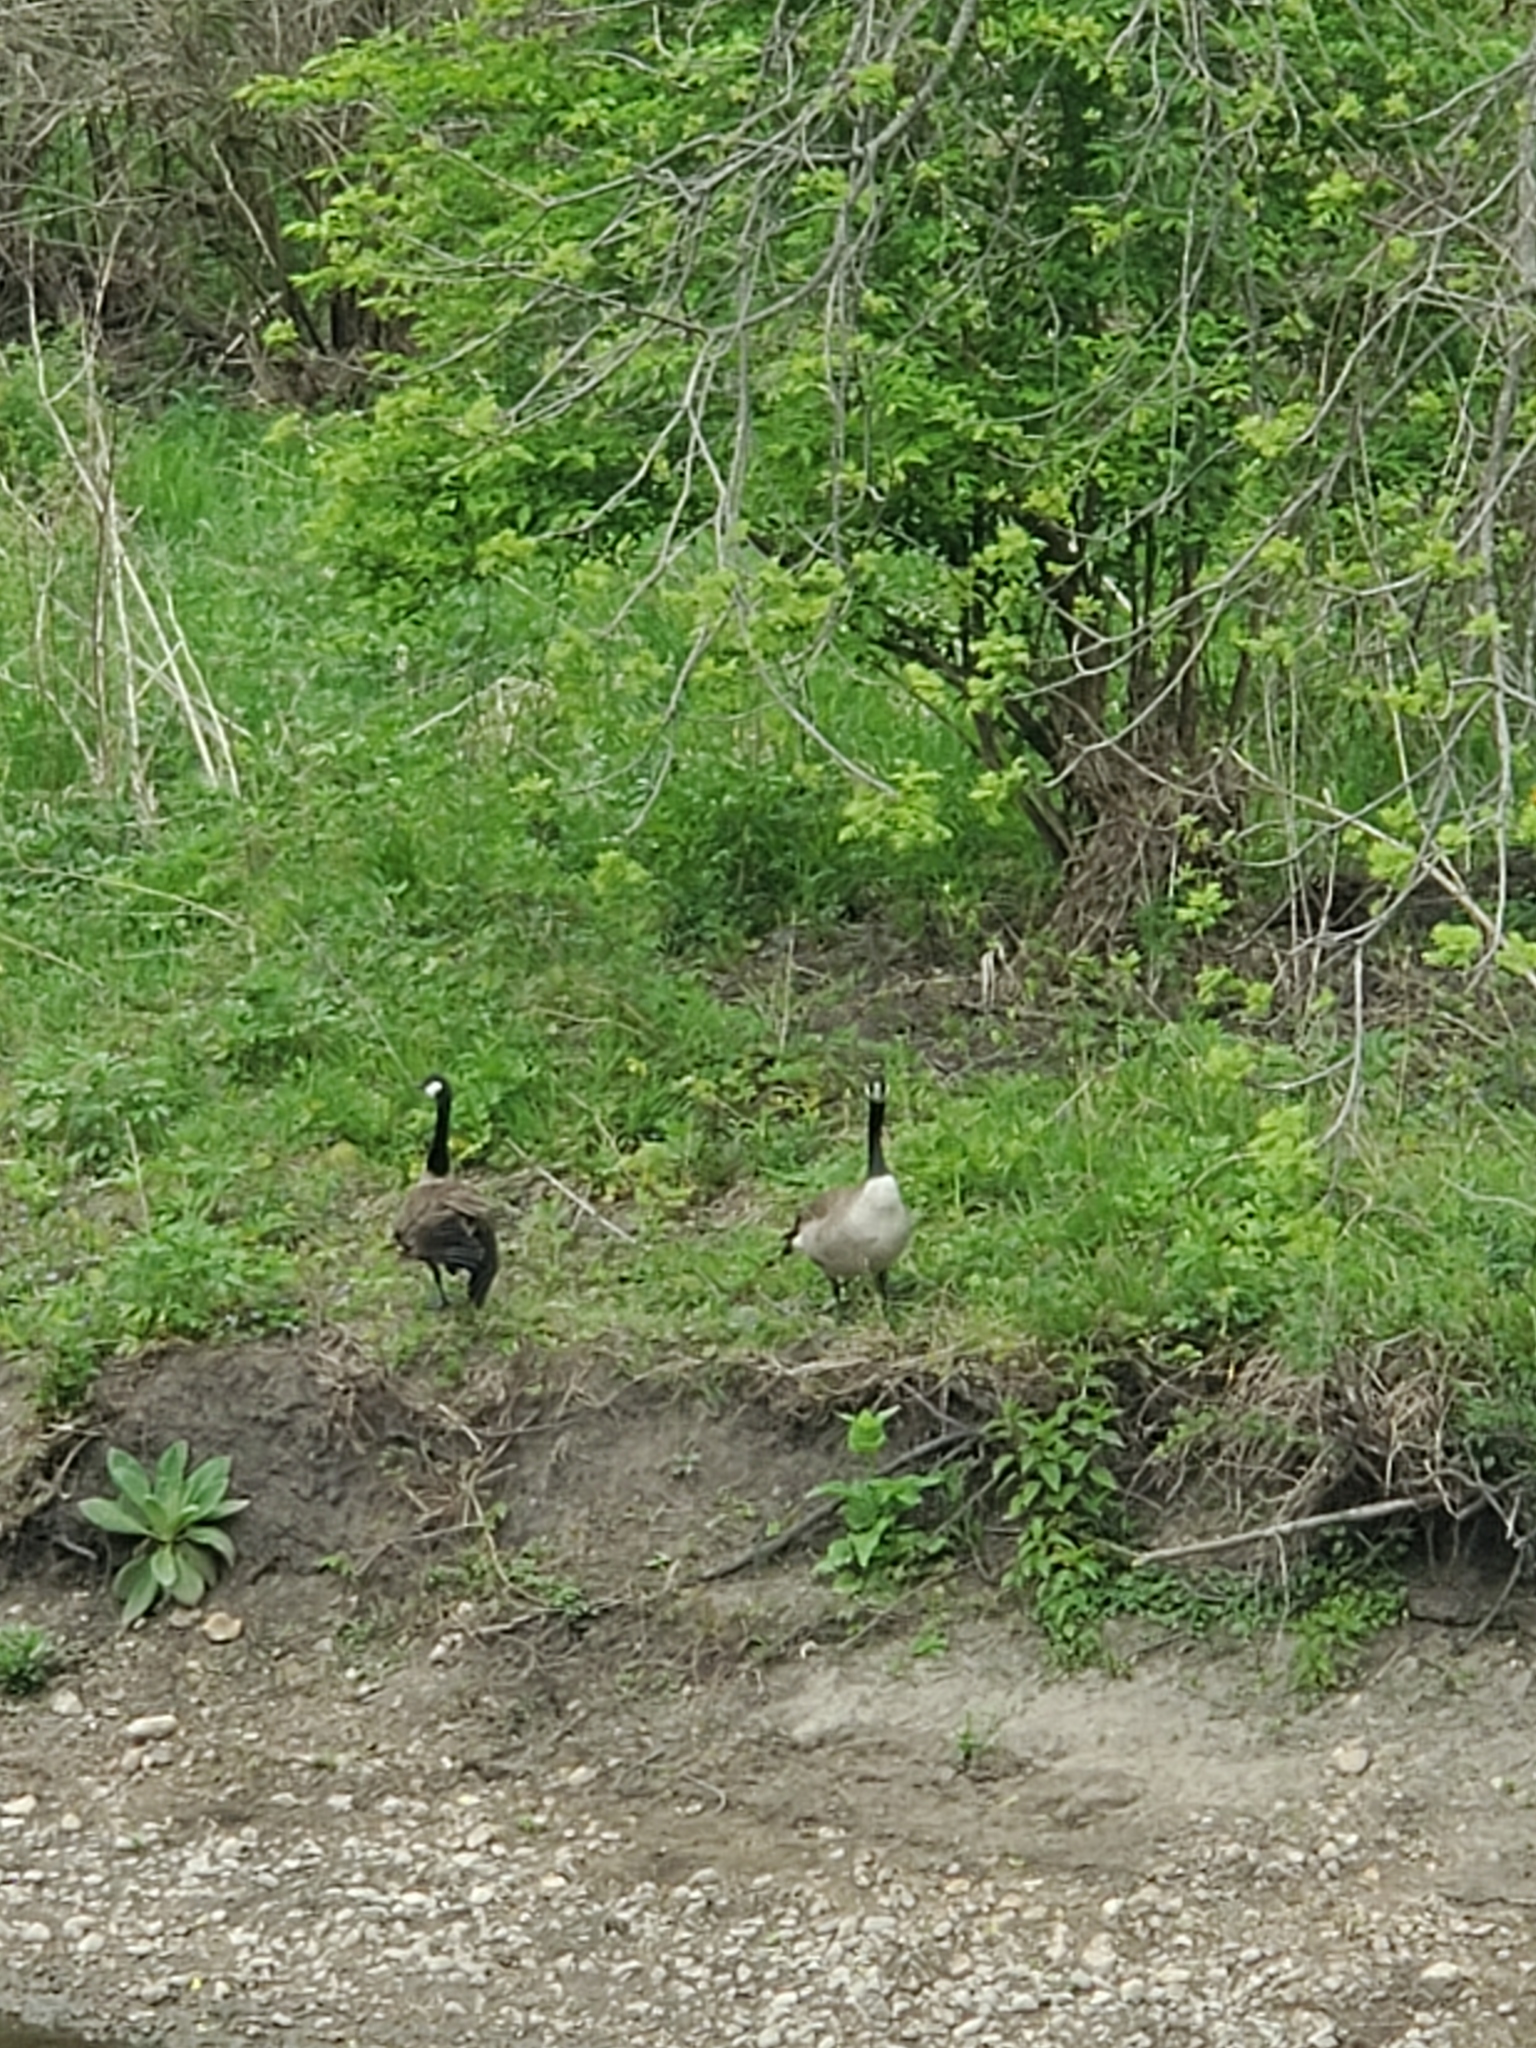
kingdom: Animalia
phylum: Chordata
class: Aves
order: Anseriformes
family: Anatidae
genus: Branta
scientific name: Branta canadensis
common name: Canada goose
